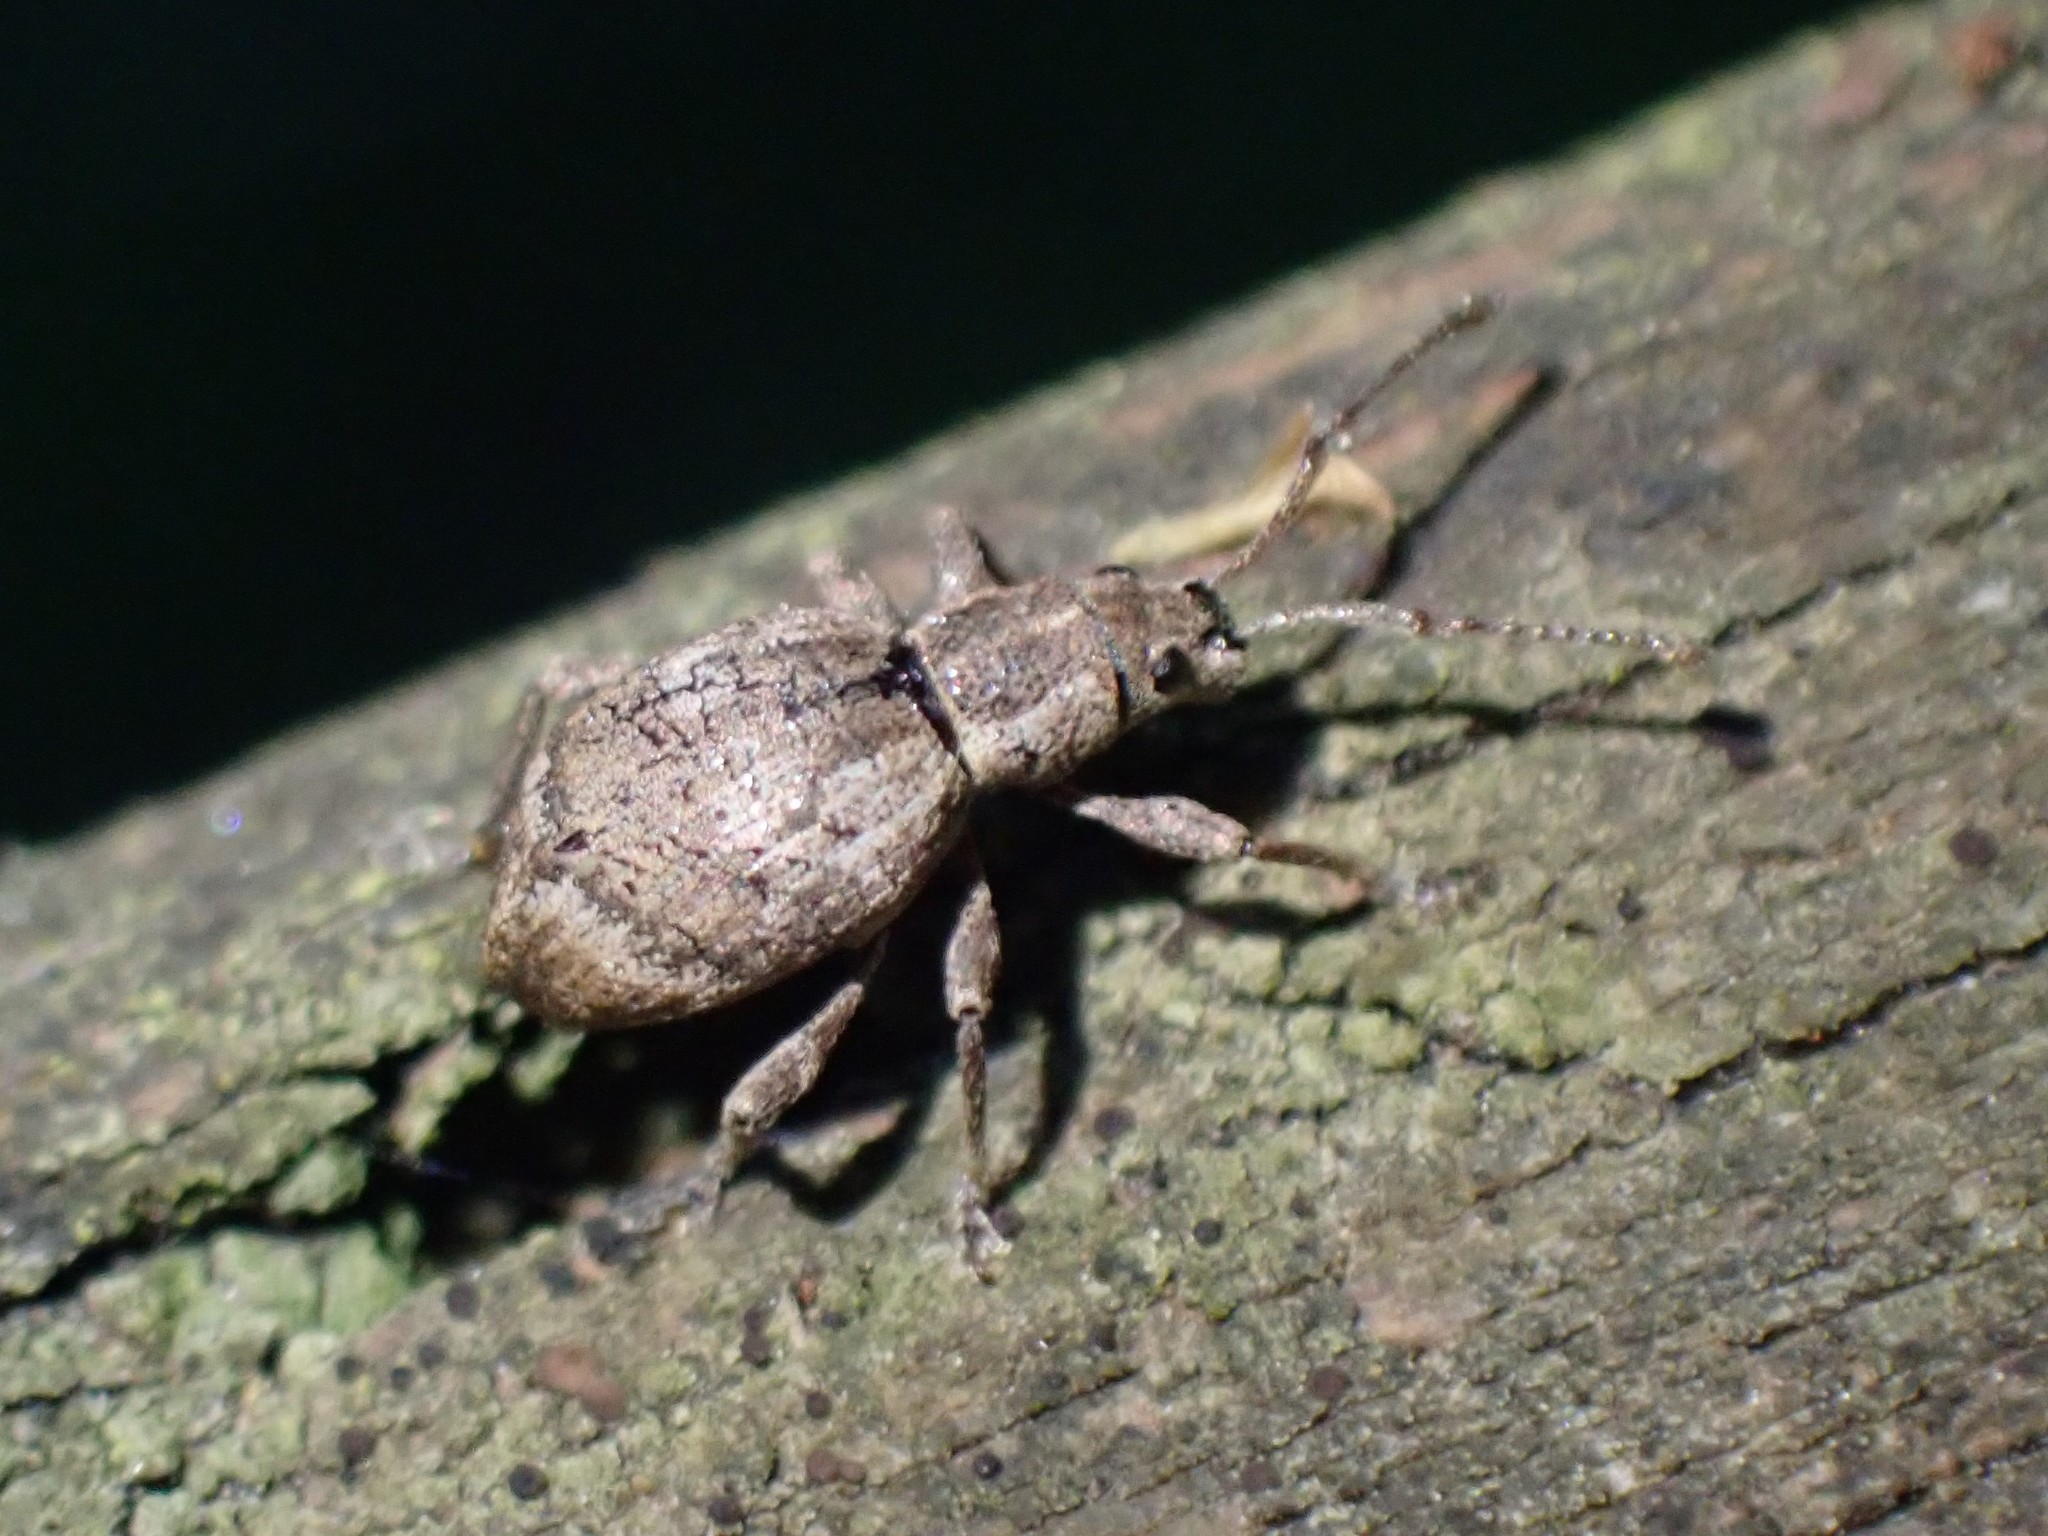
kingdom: Animalia
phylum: Arthropoda
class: Insecta
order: Coleoptera
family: Curculionidae
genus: Sciopithes
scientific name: Sciopithes obscurus
